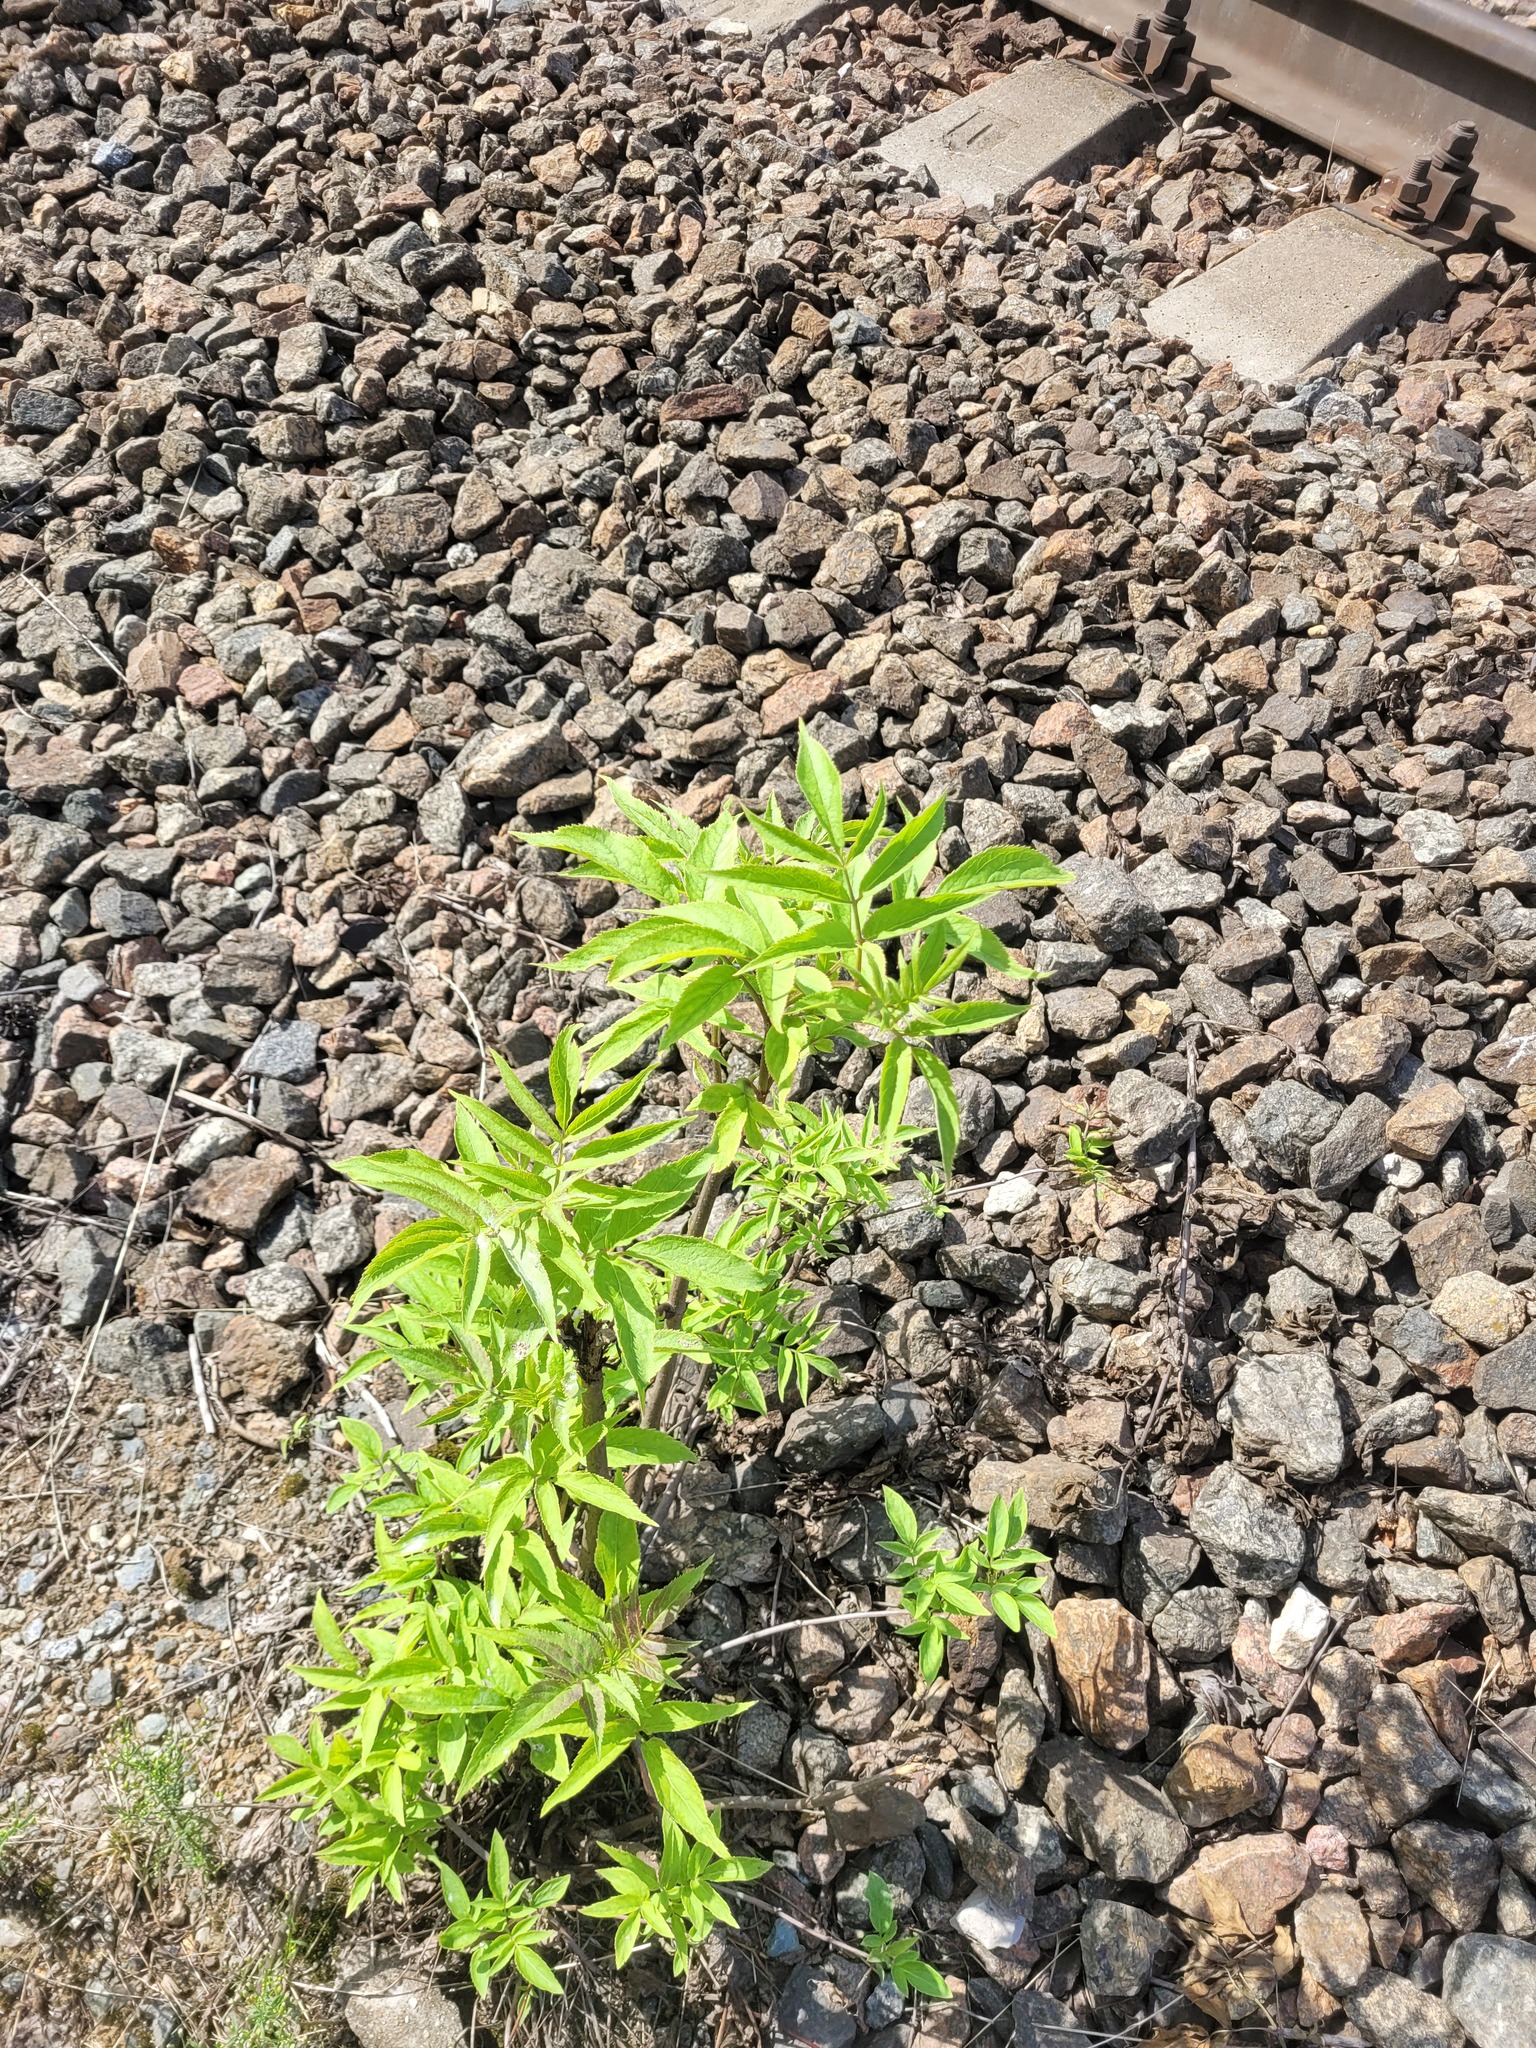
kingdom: Plantae
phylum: Tracheophyta
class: Magnoliopsida
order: Dipsacales
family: Viburnaceae
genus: Sambucus
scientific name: Sambucus racemosa
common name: Red-berried elder
